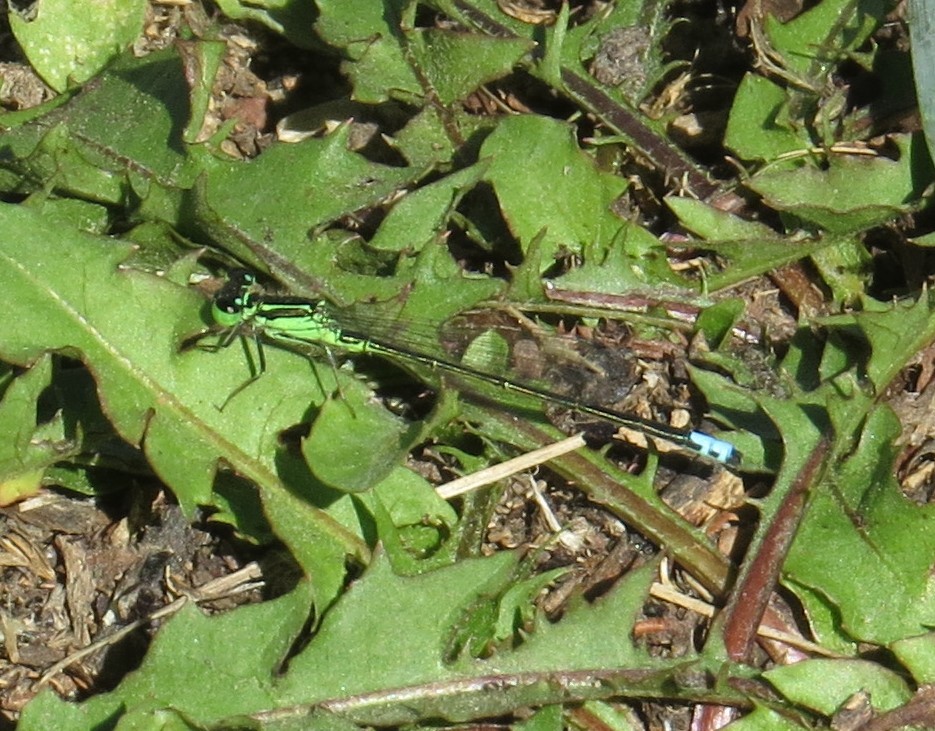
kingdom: Animalia
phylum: Arthropoda
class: Insecta
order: Odonata
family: Coenagrionidae
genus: Ischnura
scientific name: Ischnura verticalis
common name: Eastern forktail
